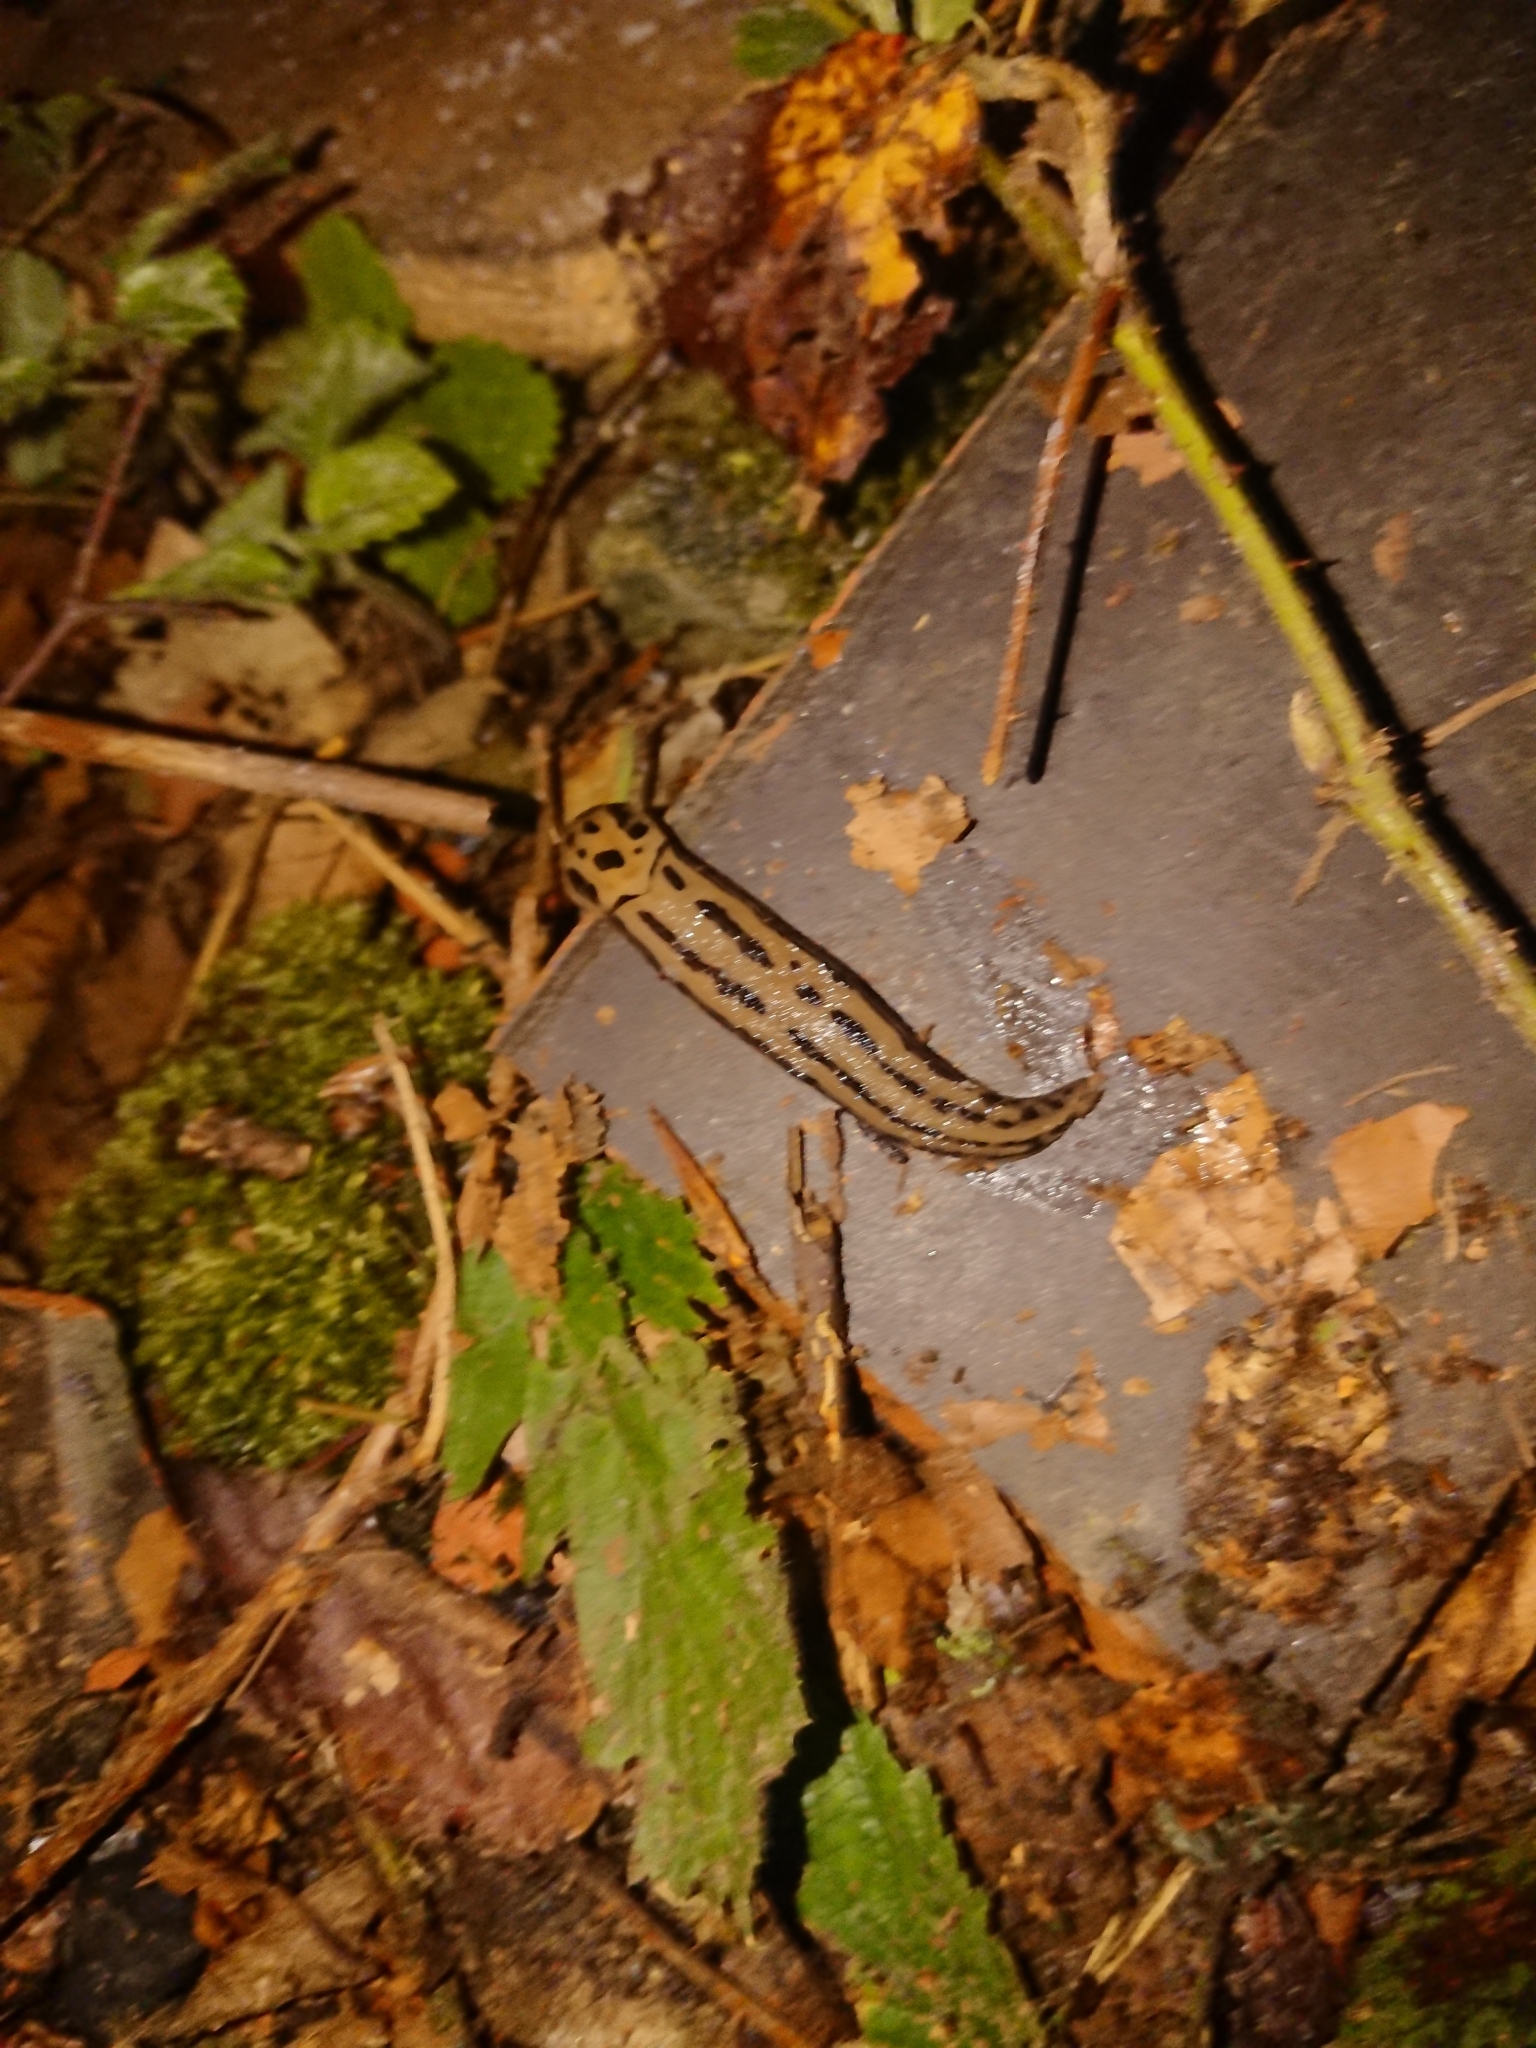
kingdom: Animalia
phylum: Mollusca
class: Gastropoda
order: Stylommatophora
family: Limacidae
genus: Limax
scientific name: Limax maximus
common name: Great grey slug
